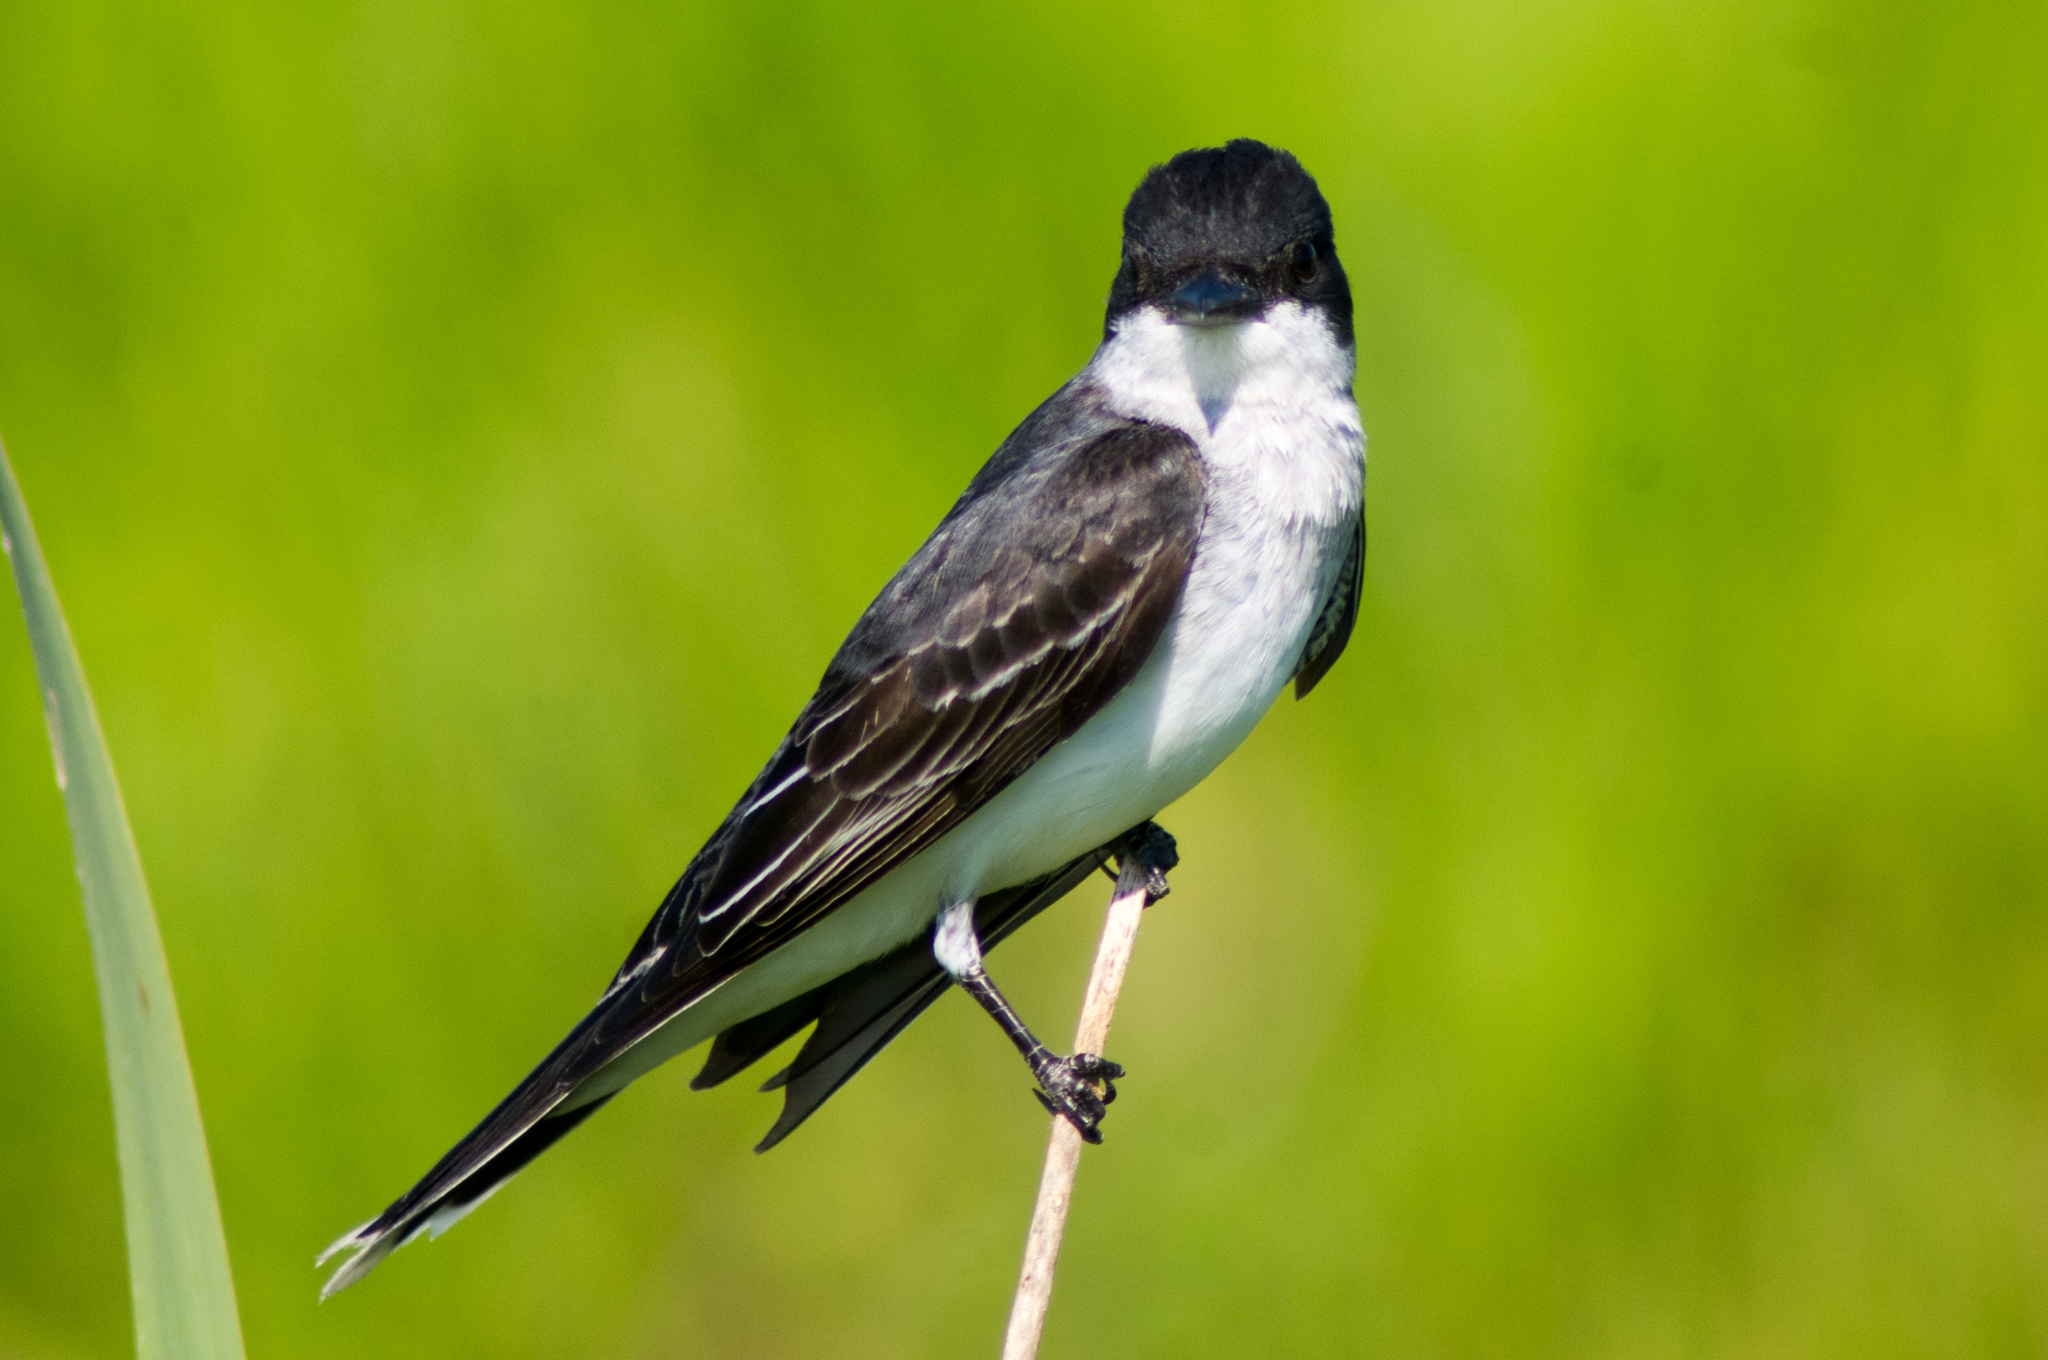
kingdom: Animalia
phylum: Chordata
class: Aves
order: Passeriformes
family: Tyrannidae
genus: Tyrannus
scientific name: Tyrannus tyrannus
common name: Eastern kingbird
